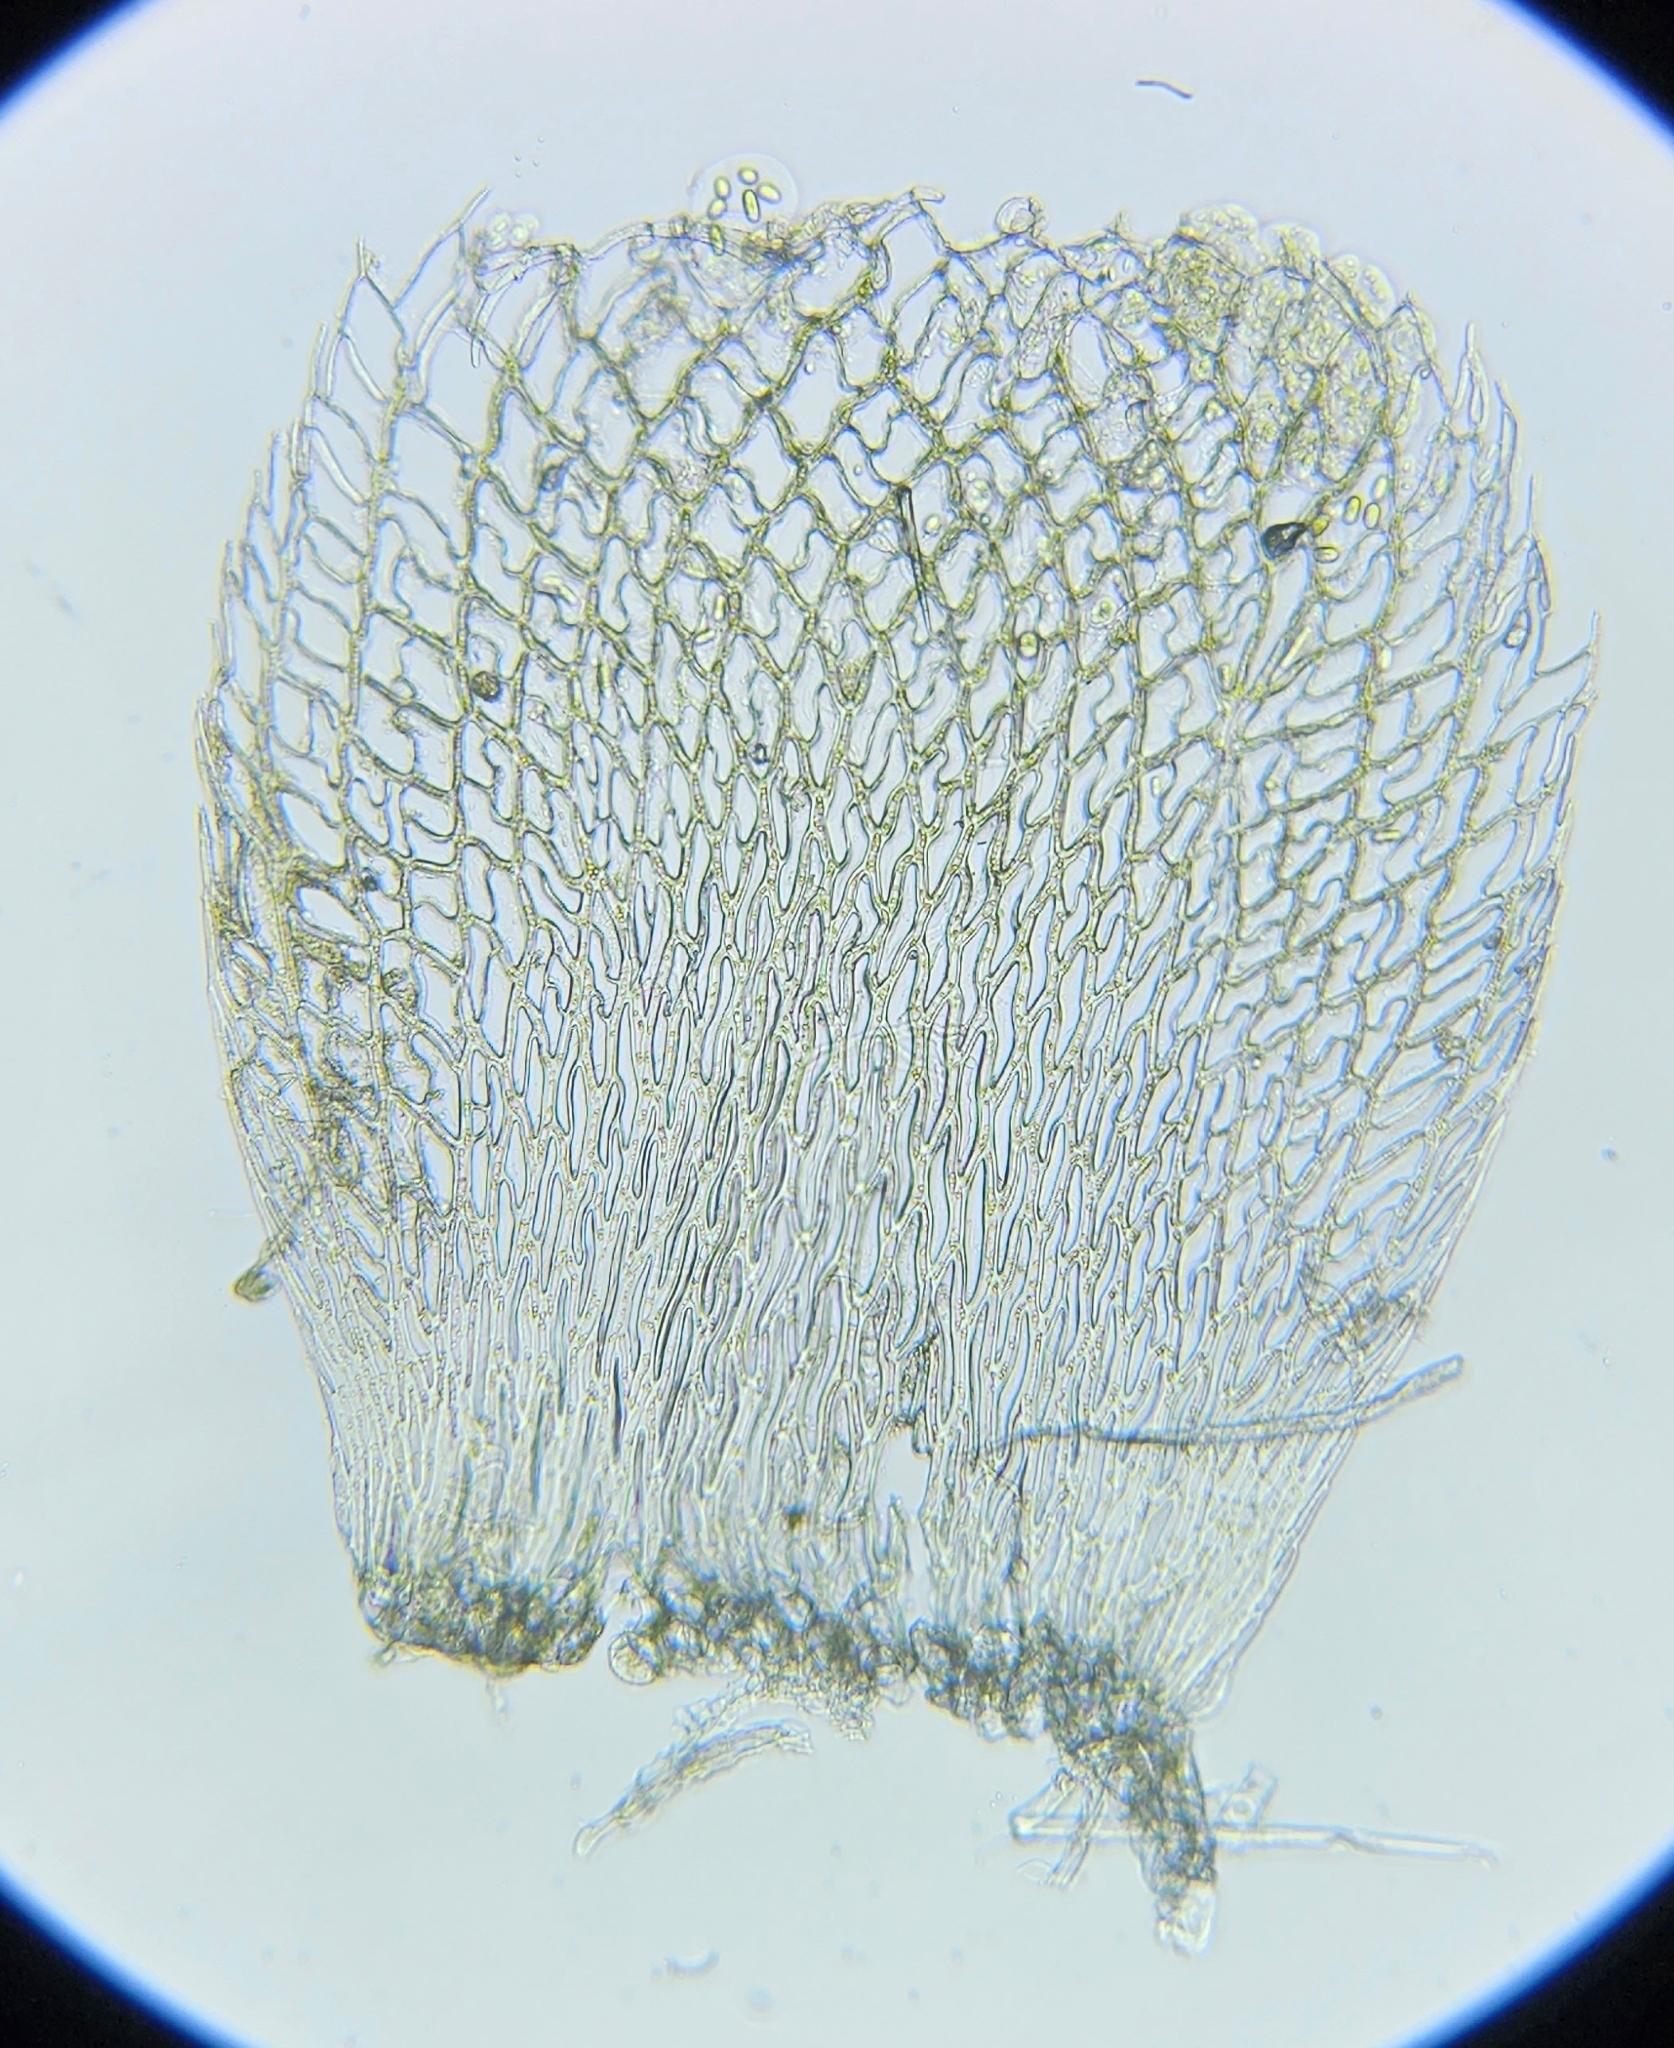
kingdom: Plantae
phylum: Bryophyta
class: Sphagnopsida
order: Sphagnales
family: Sphagnaceae
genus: Sphagnum
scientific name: Sphagnum fimbriatum
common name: Fringed peat moss
